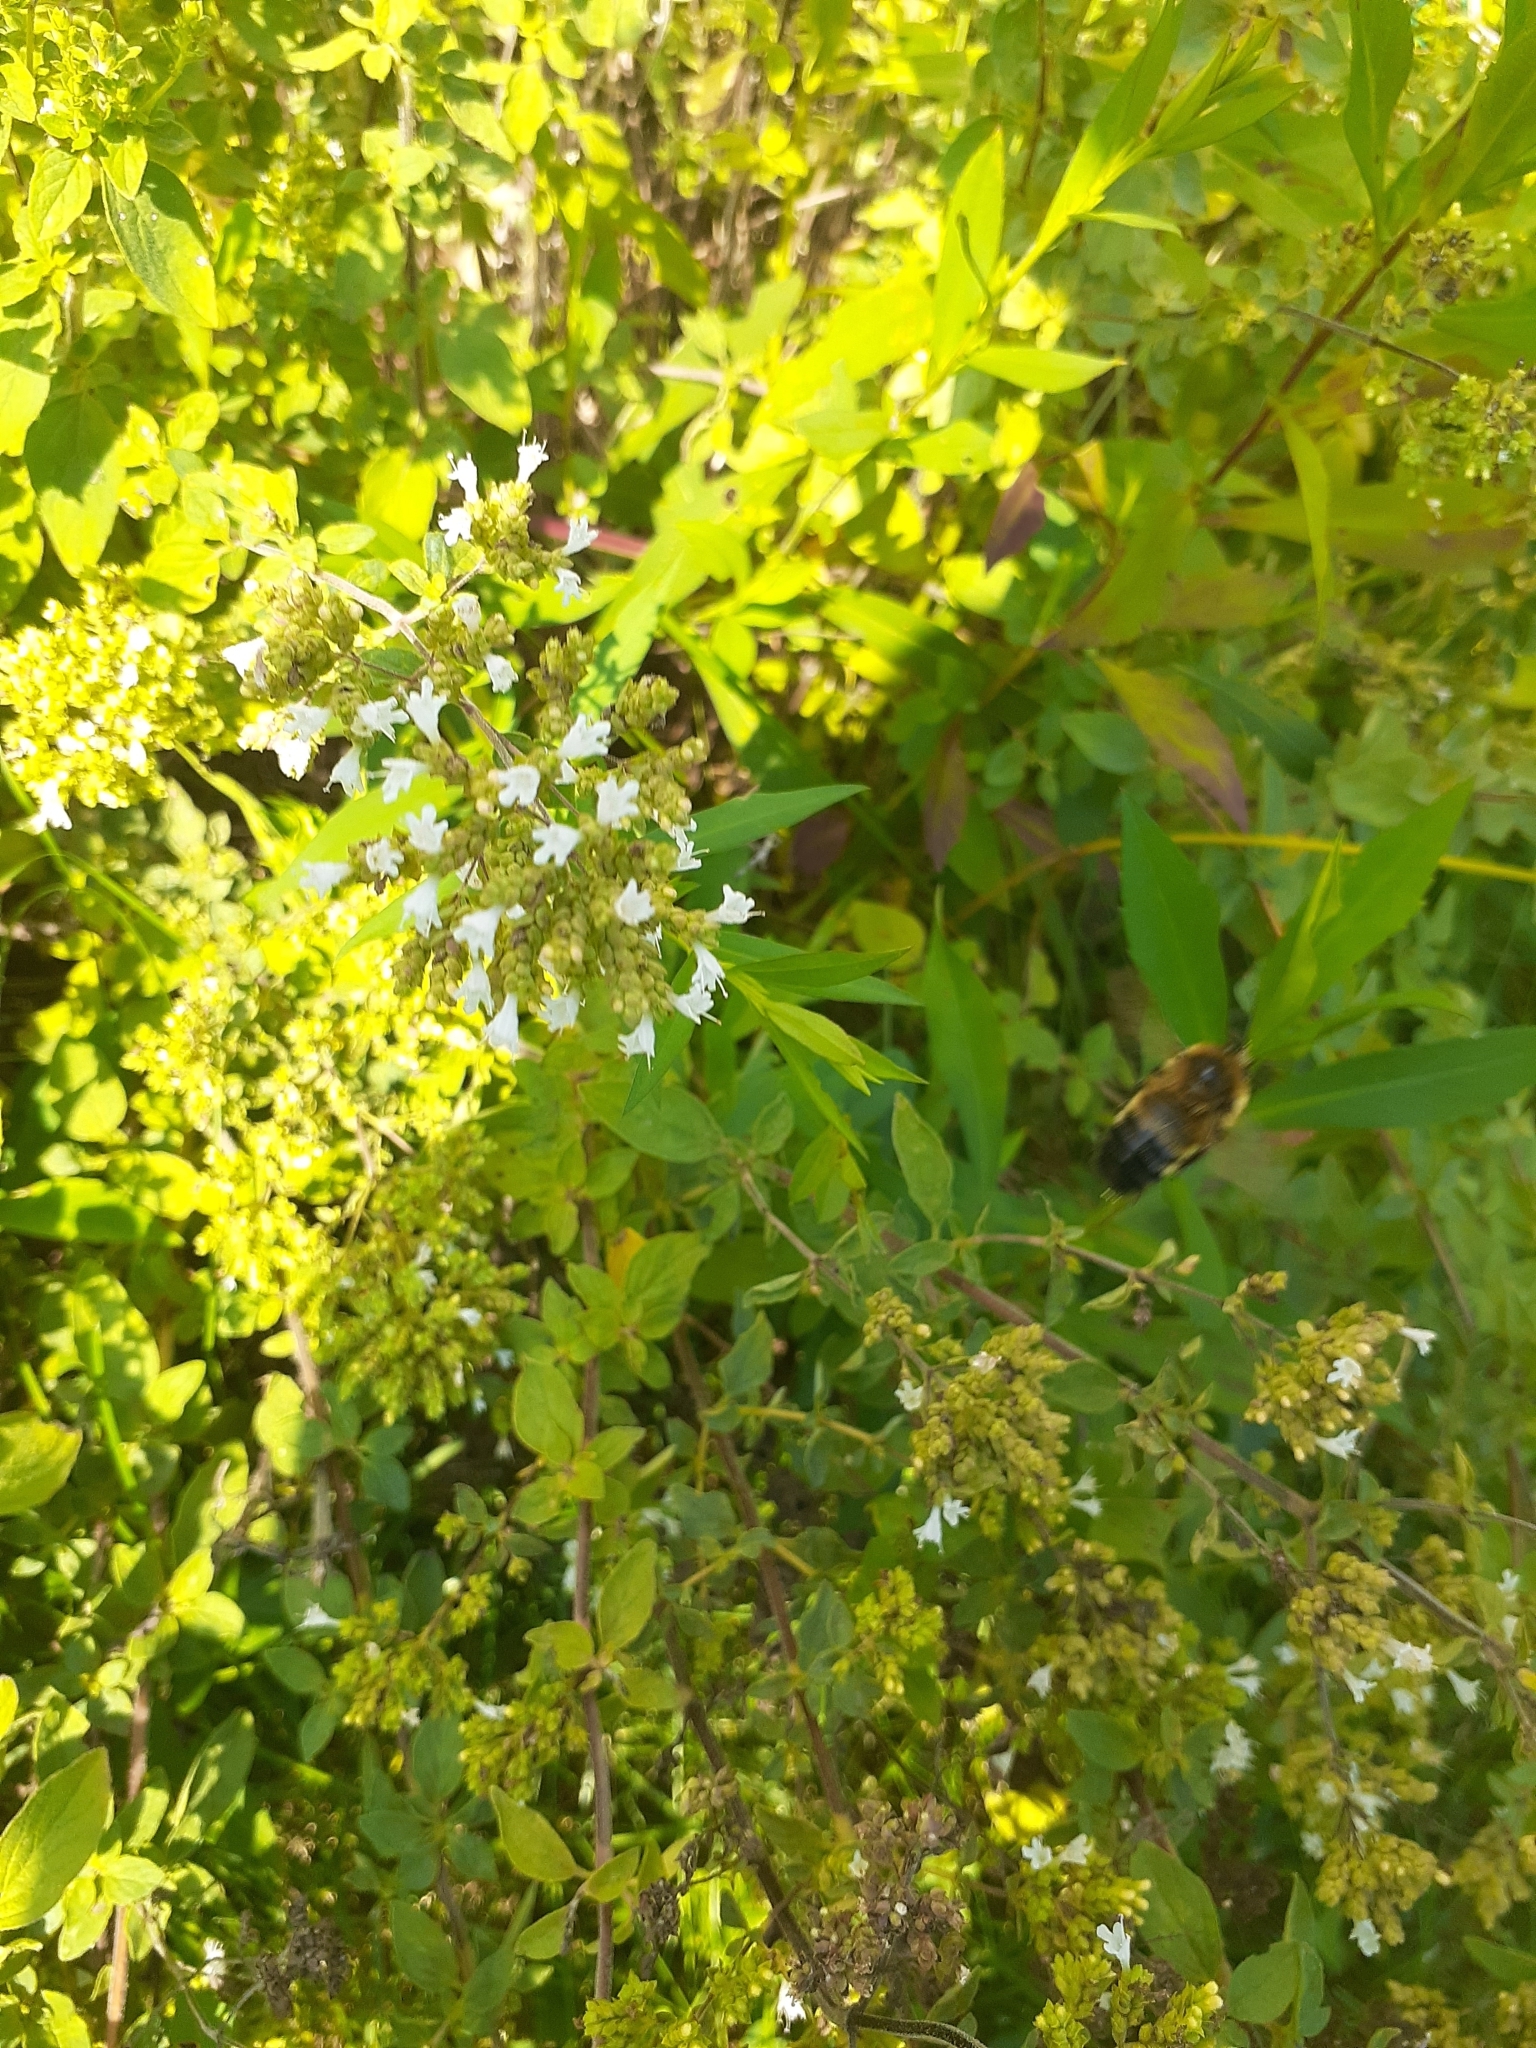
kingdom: Animalia
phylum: Arthropoda
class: Insecta
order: Hymenoptera
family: Apidae
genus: Bombus
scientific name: Bombus rufocinctus
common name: Red-belted bumble bee
